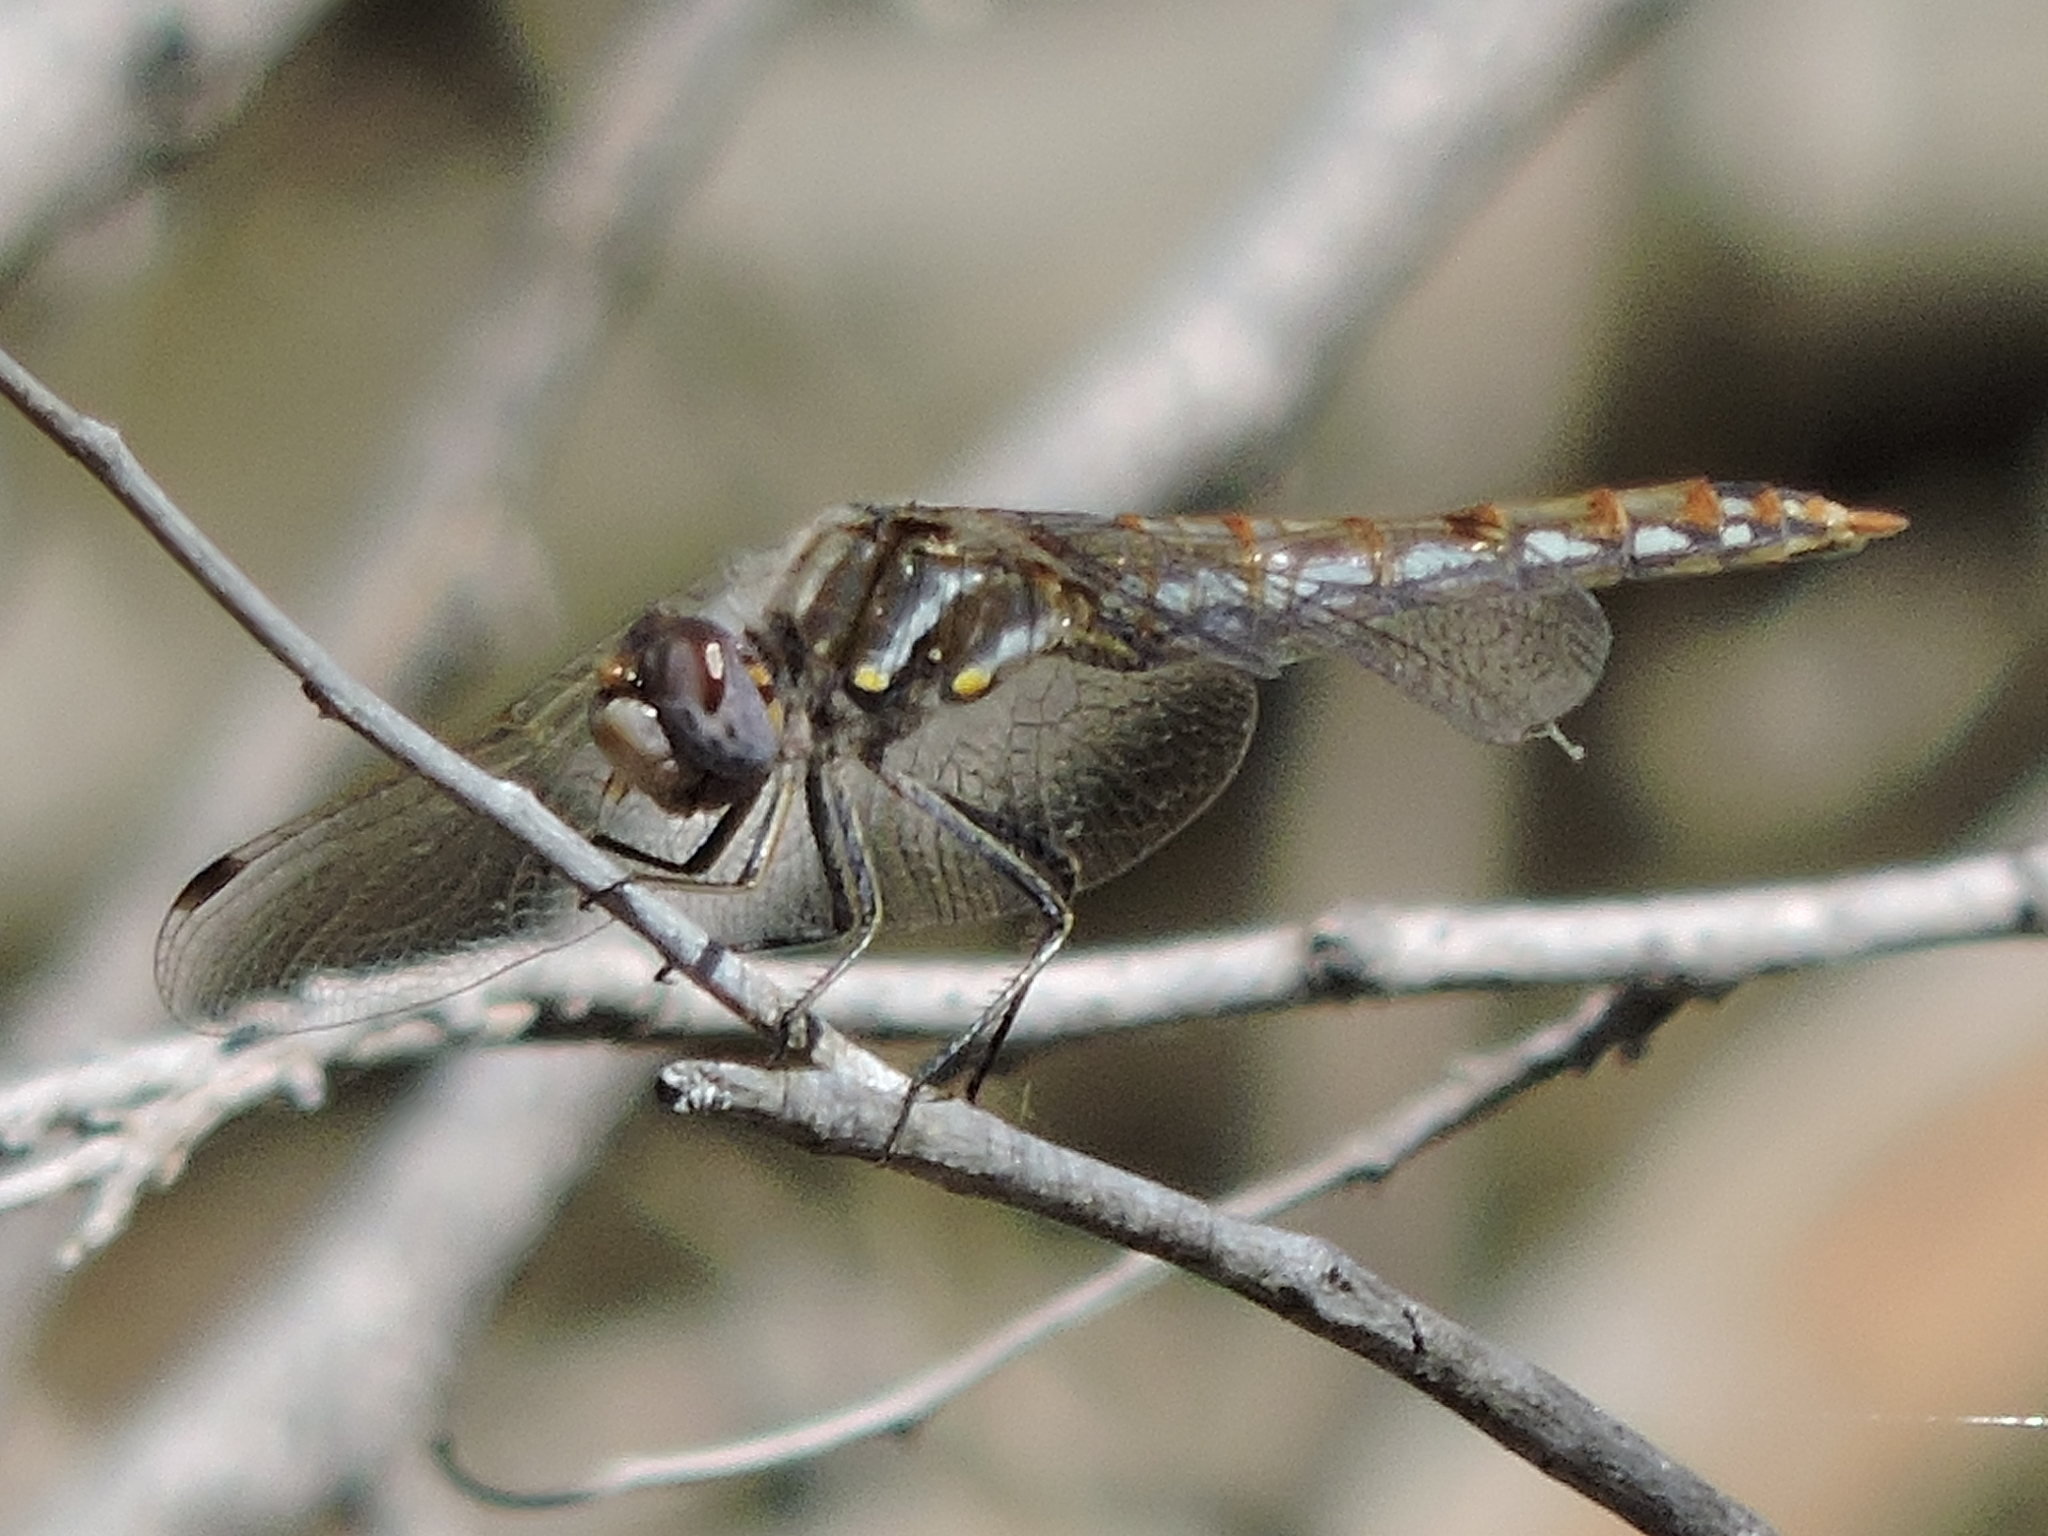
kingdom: Animalia
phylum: Arthropoda
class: Insecta
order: Odonata
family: Libellulidae
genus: Sympetrum
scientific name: Sympetrum corruptum
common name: Variegated meadowhawk
